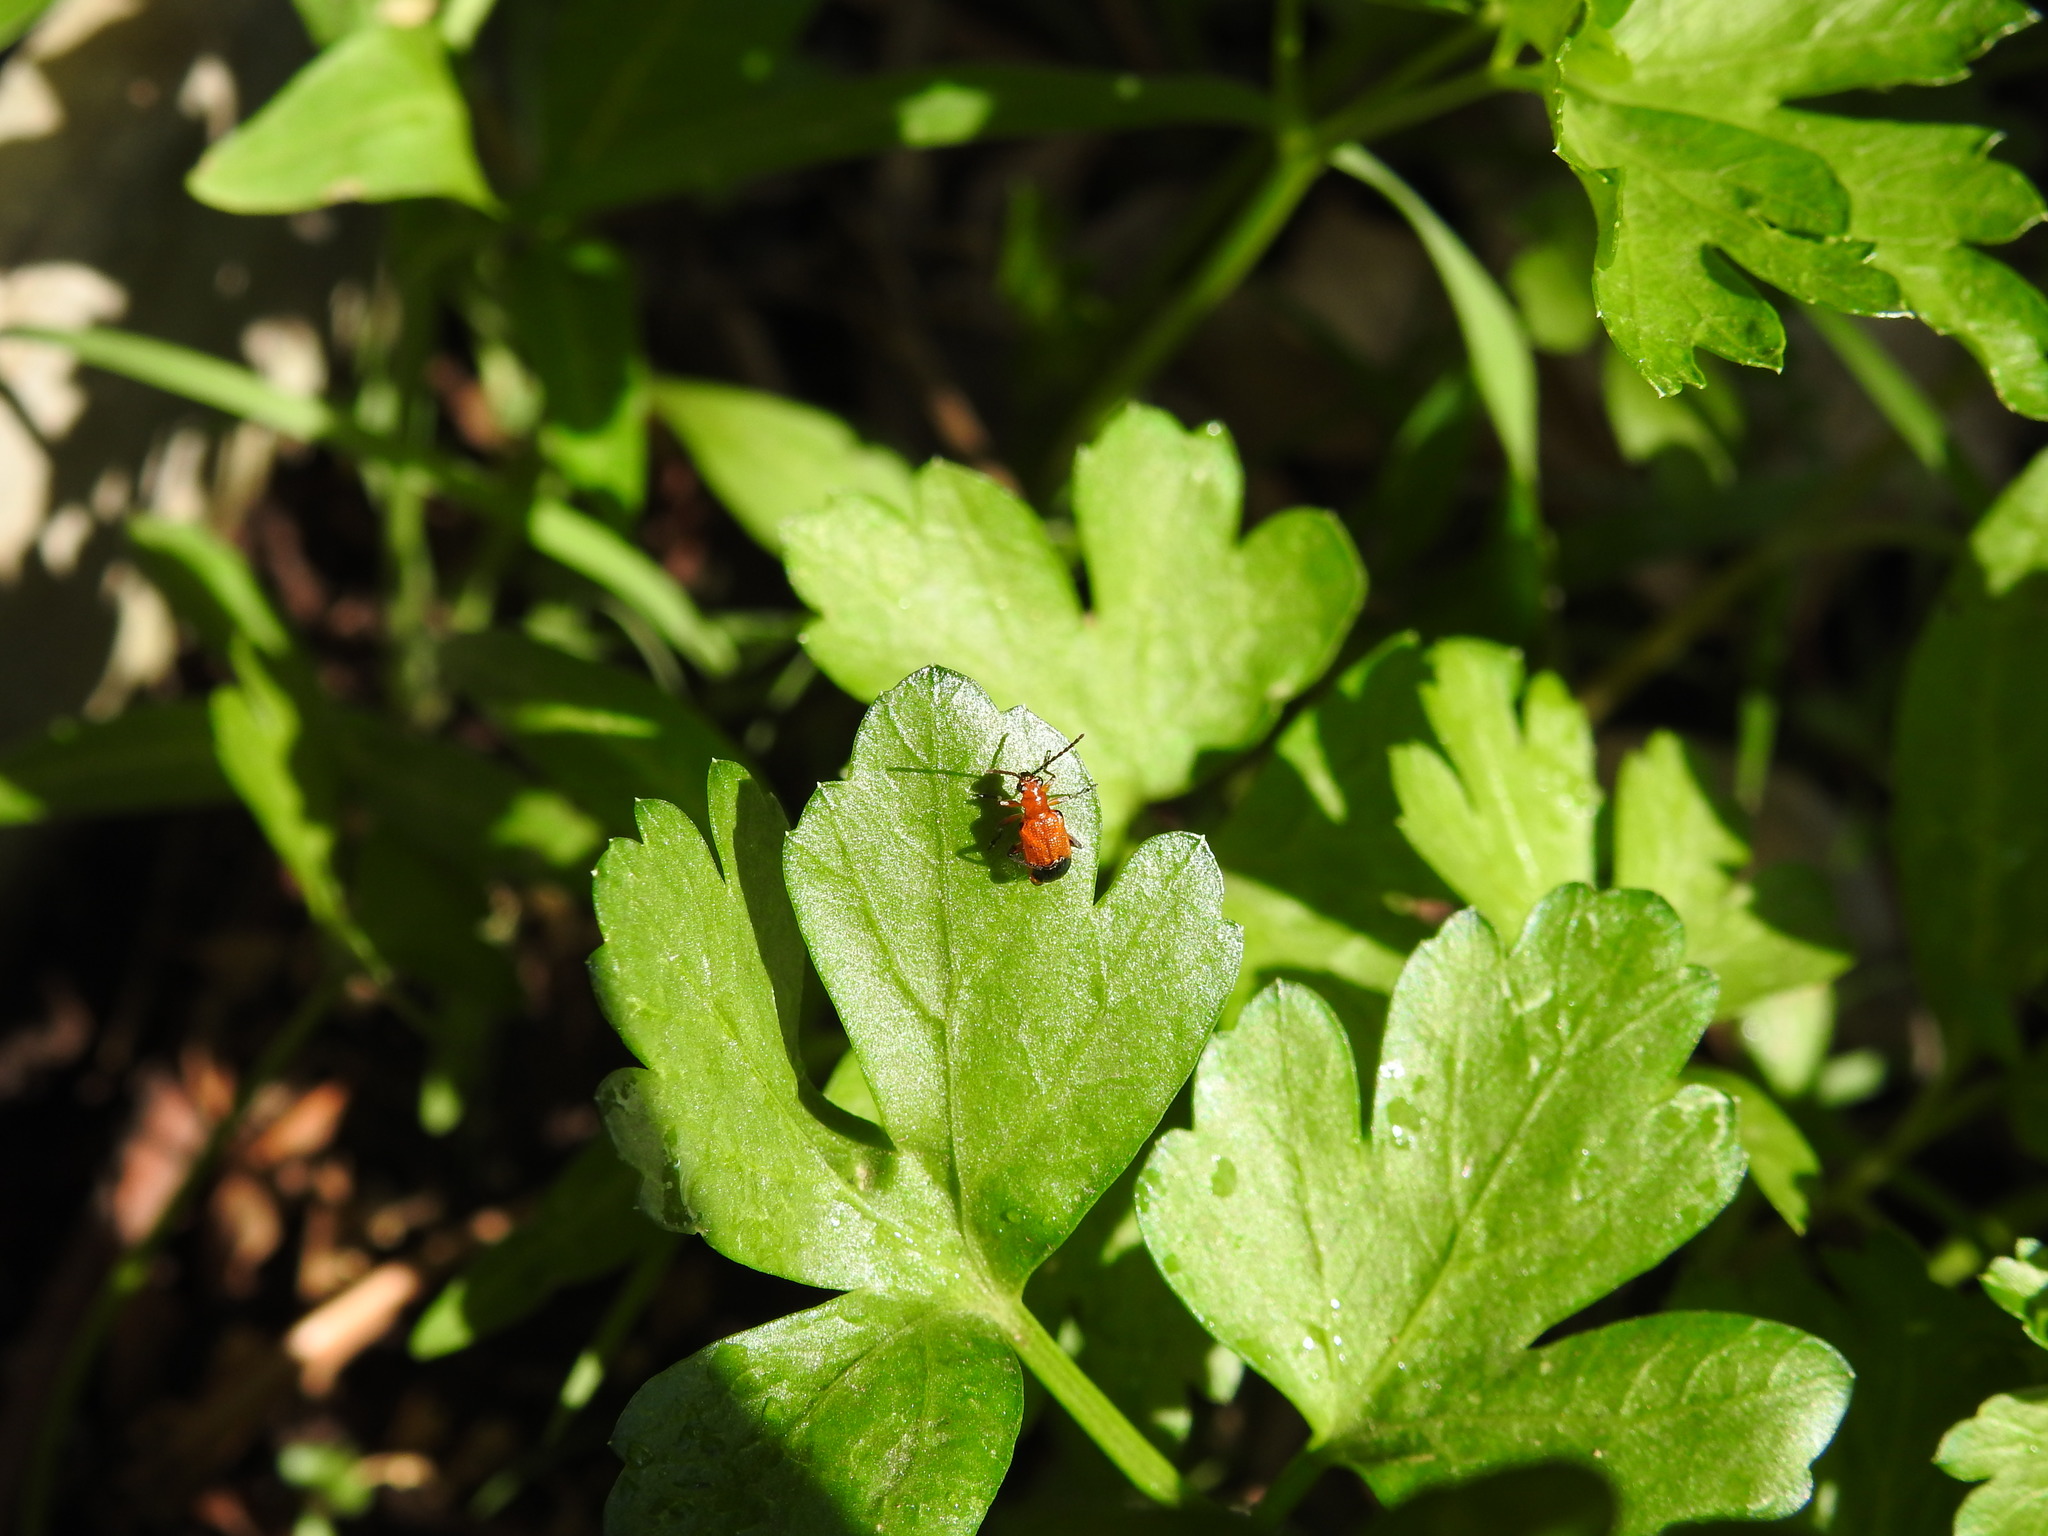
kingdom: Animalia
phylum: Arthropoda
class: Insecta
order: Coleoptera
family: Chrysomelidae
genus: Neolema
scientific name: Neolema dorsalis
